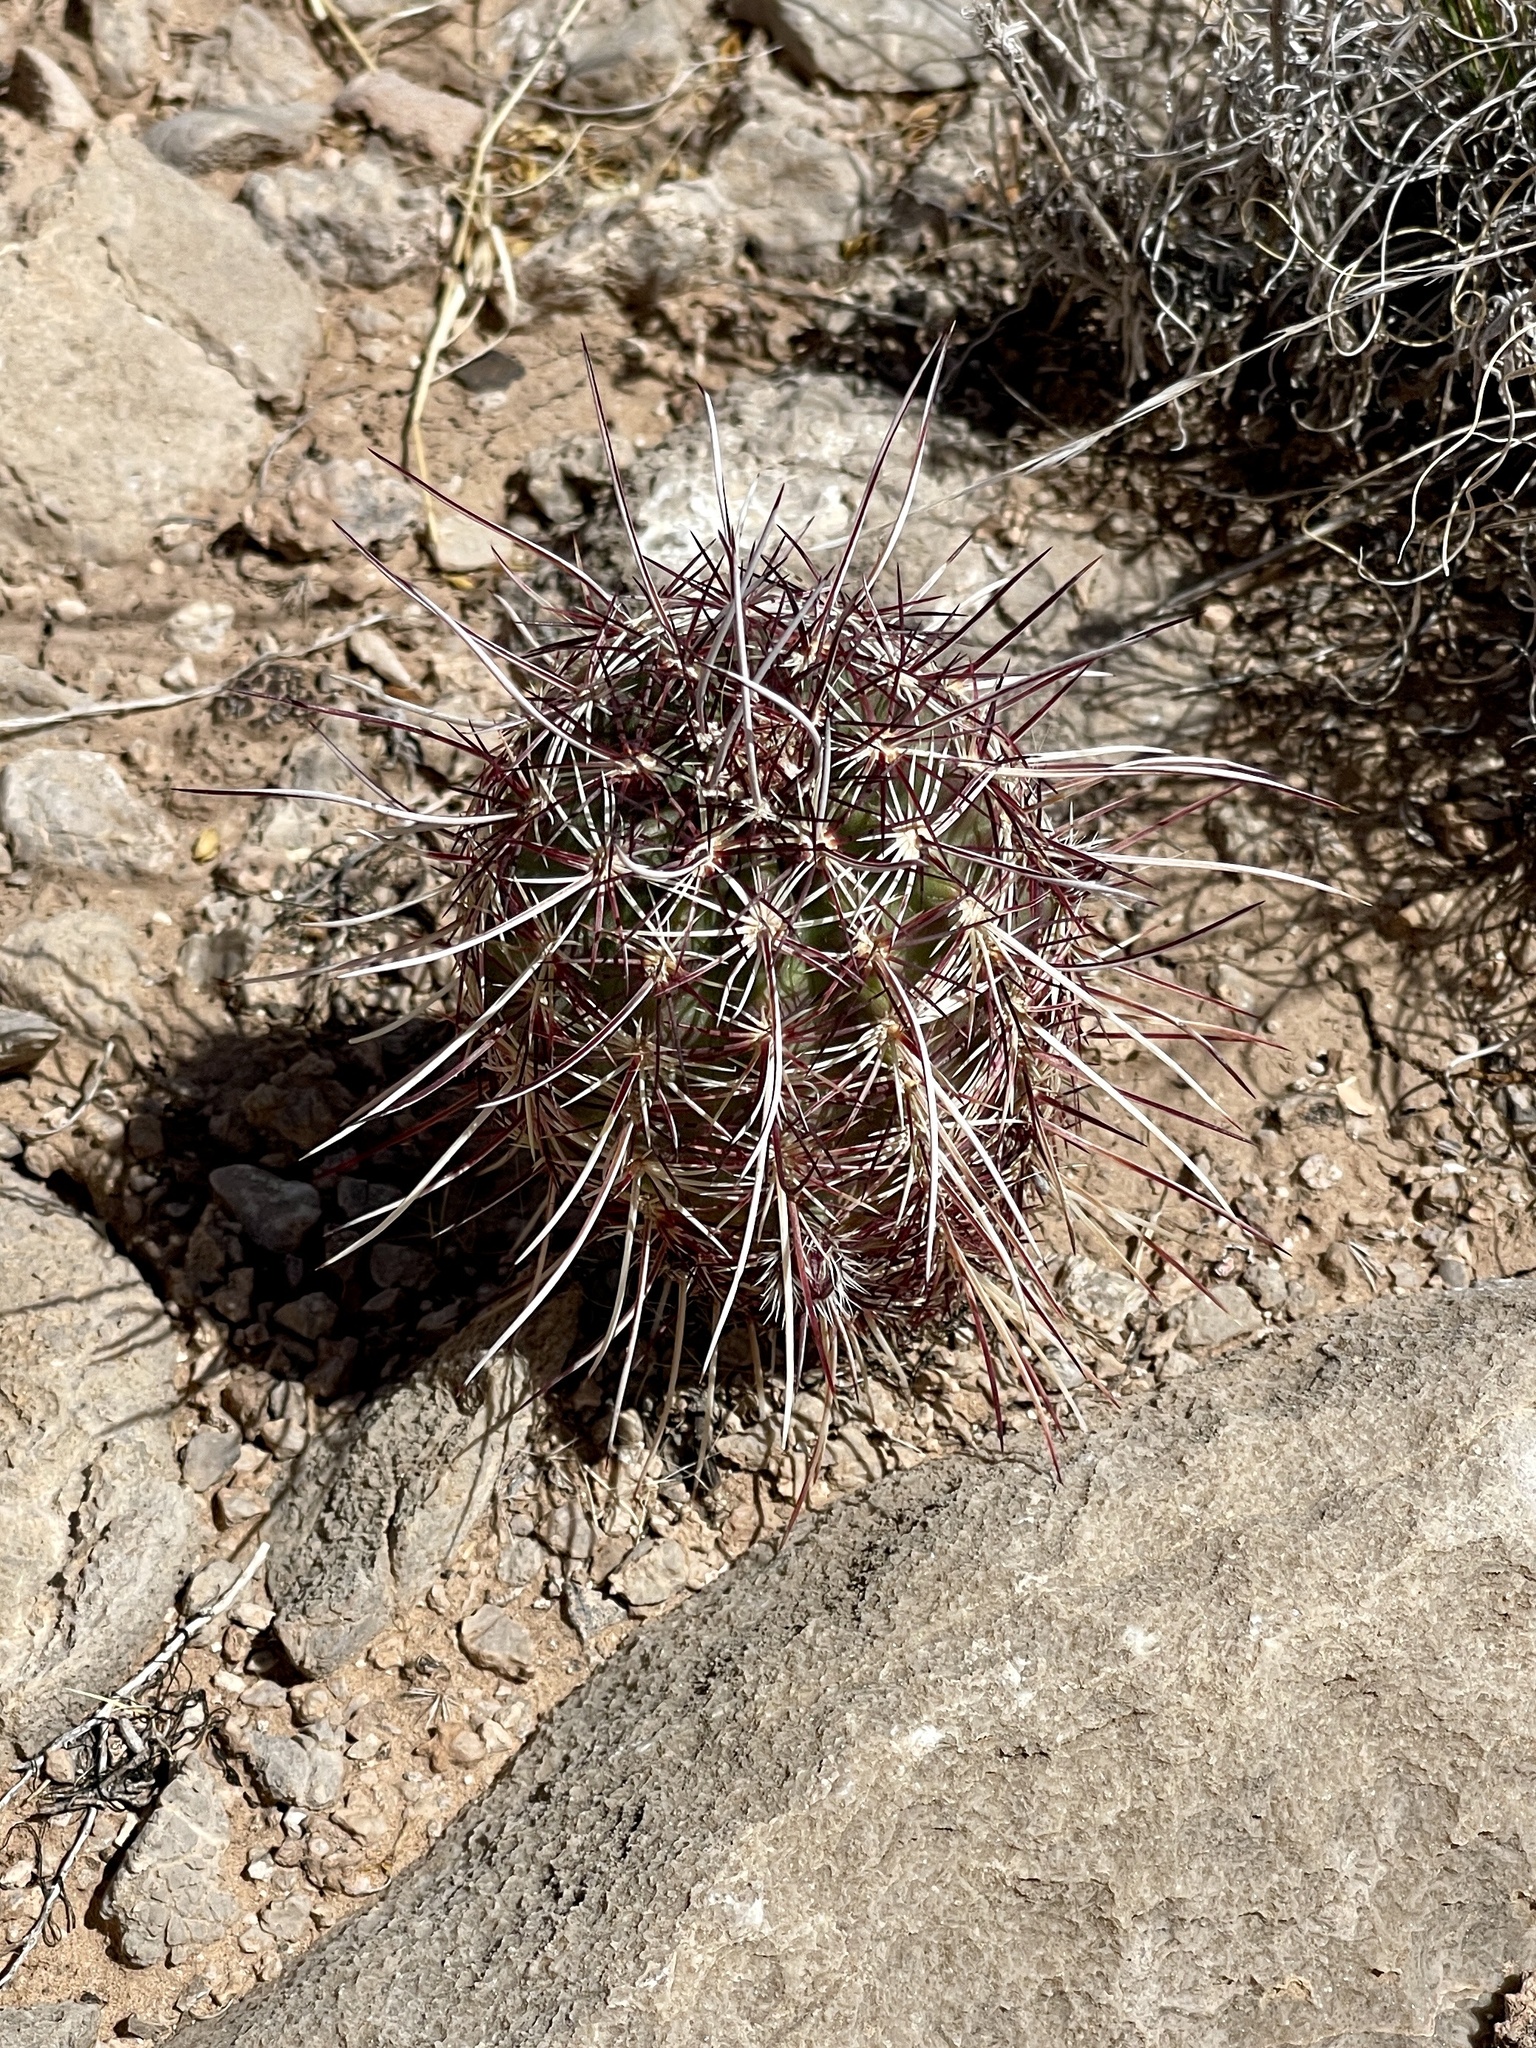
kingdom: Plantae
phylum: Tracheophyta
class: Magnoliopsida
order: Caryophyllales
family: Cactaceae
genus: Echinocereus
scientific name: Echinocereus viridiflorus
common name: Nylon hedgehog cactus
